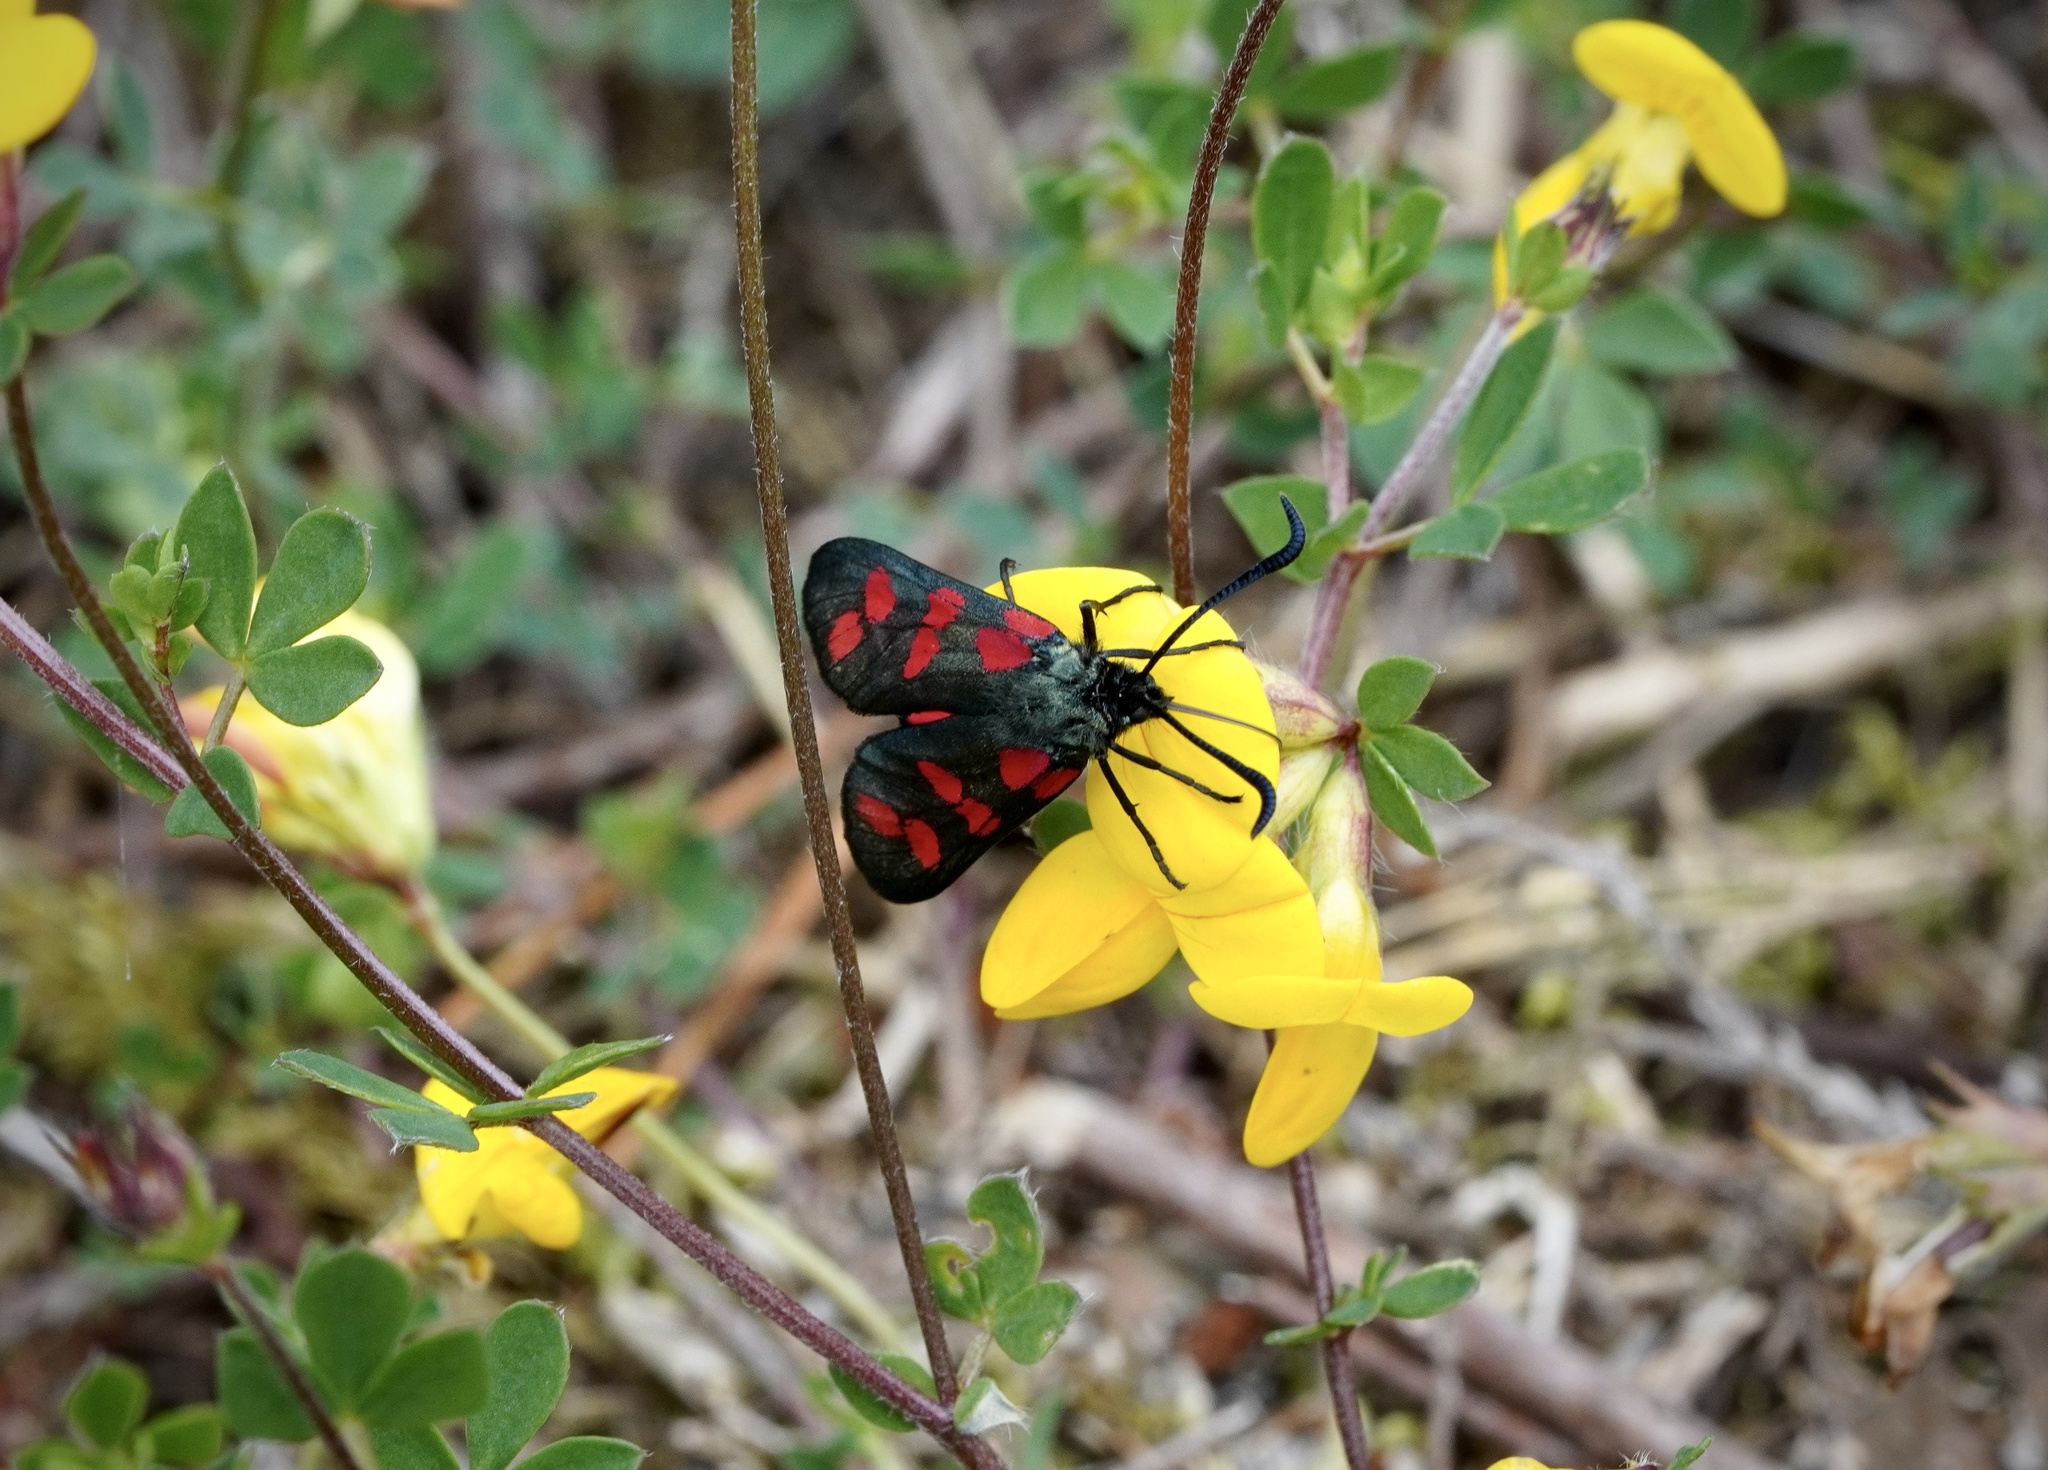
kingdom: Animalia
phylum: Arthropoda
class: Insecta
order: Lepidoptera
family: Zygaenidae
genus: Zygaena
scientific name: Zygaena filipendulae
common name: Six-spot burnet
